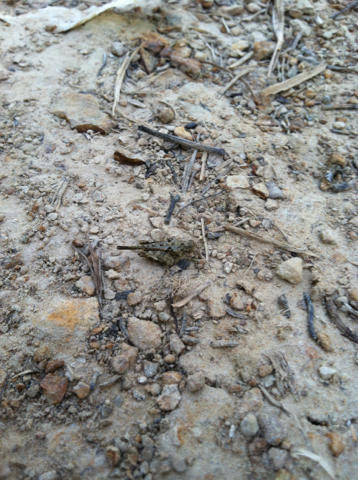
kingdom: Animalia
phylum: Arthropoda
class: Insecta
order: Orthoptera
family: Tetrigidae
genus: Paratettix
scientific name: Paratettix mexicanus
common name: Mexican pygmy grasshopper
